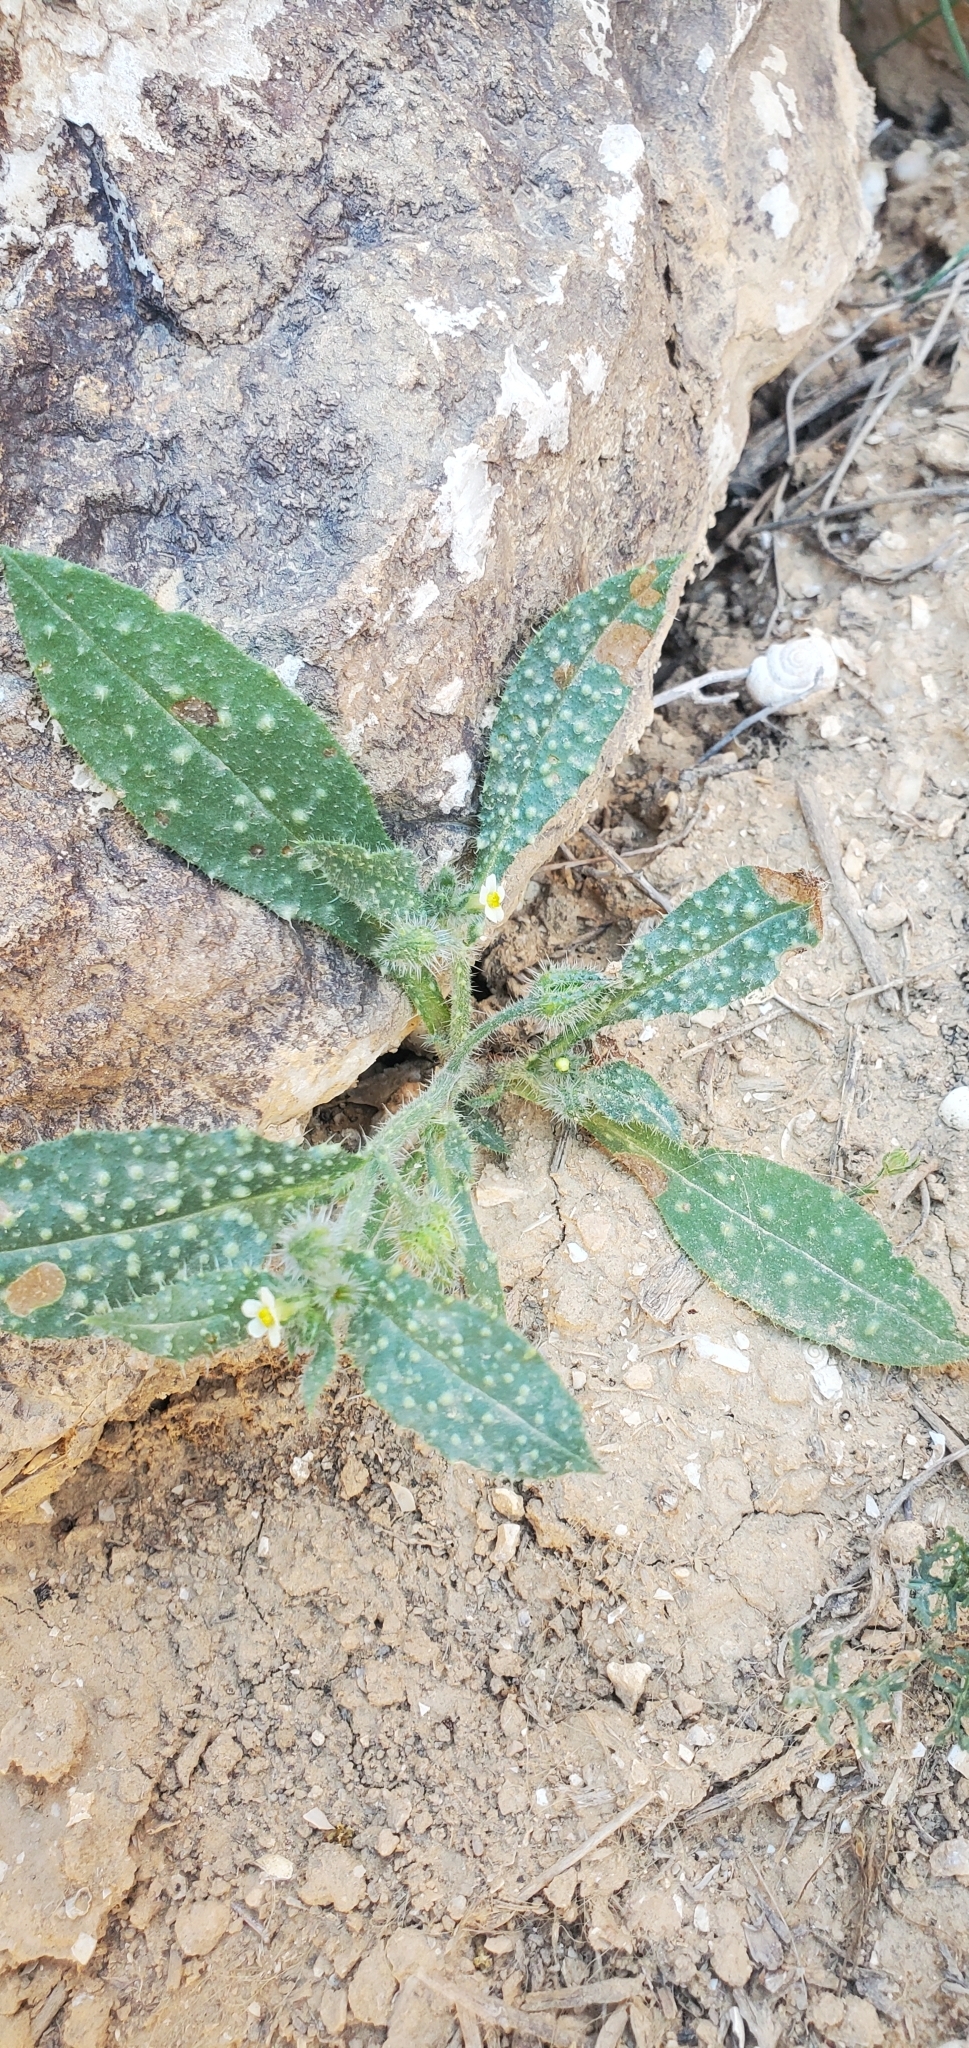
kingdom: Plantae
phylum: Tracheophyta
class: Magnoliopsida
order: Boraginales
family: Boraginaceae
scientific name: Boraginaceae
